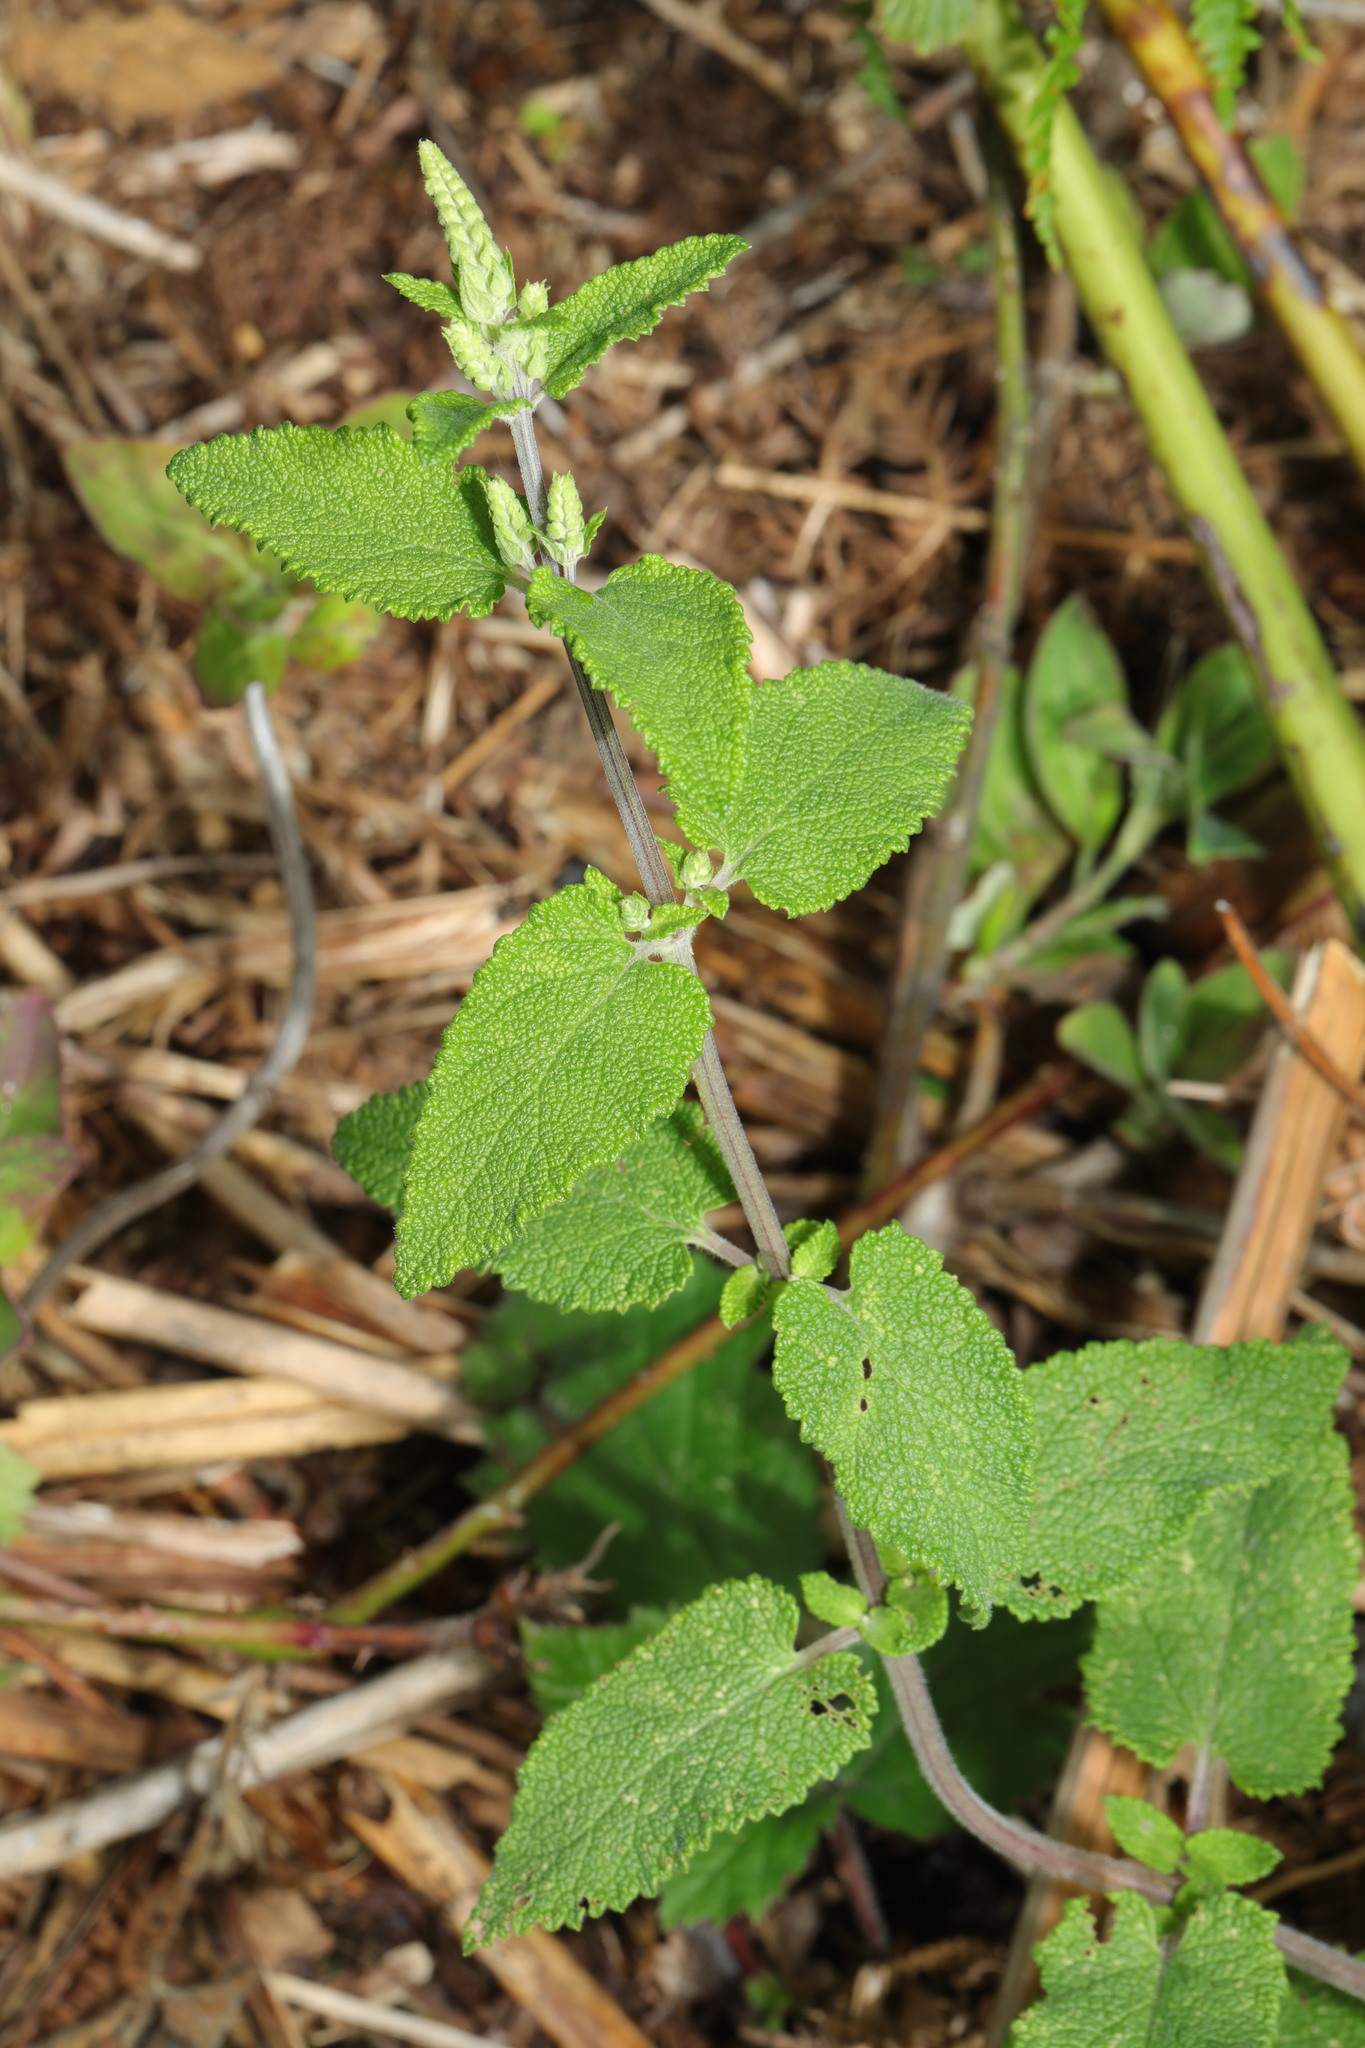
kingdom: Plantae
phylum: Tracheophyta
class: Magnoliopsida
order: Lamiales
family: Lamiaceae
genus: Teucrium
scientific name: Teucrium scorodonia
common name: Woodland germander
